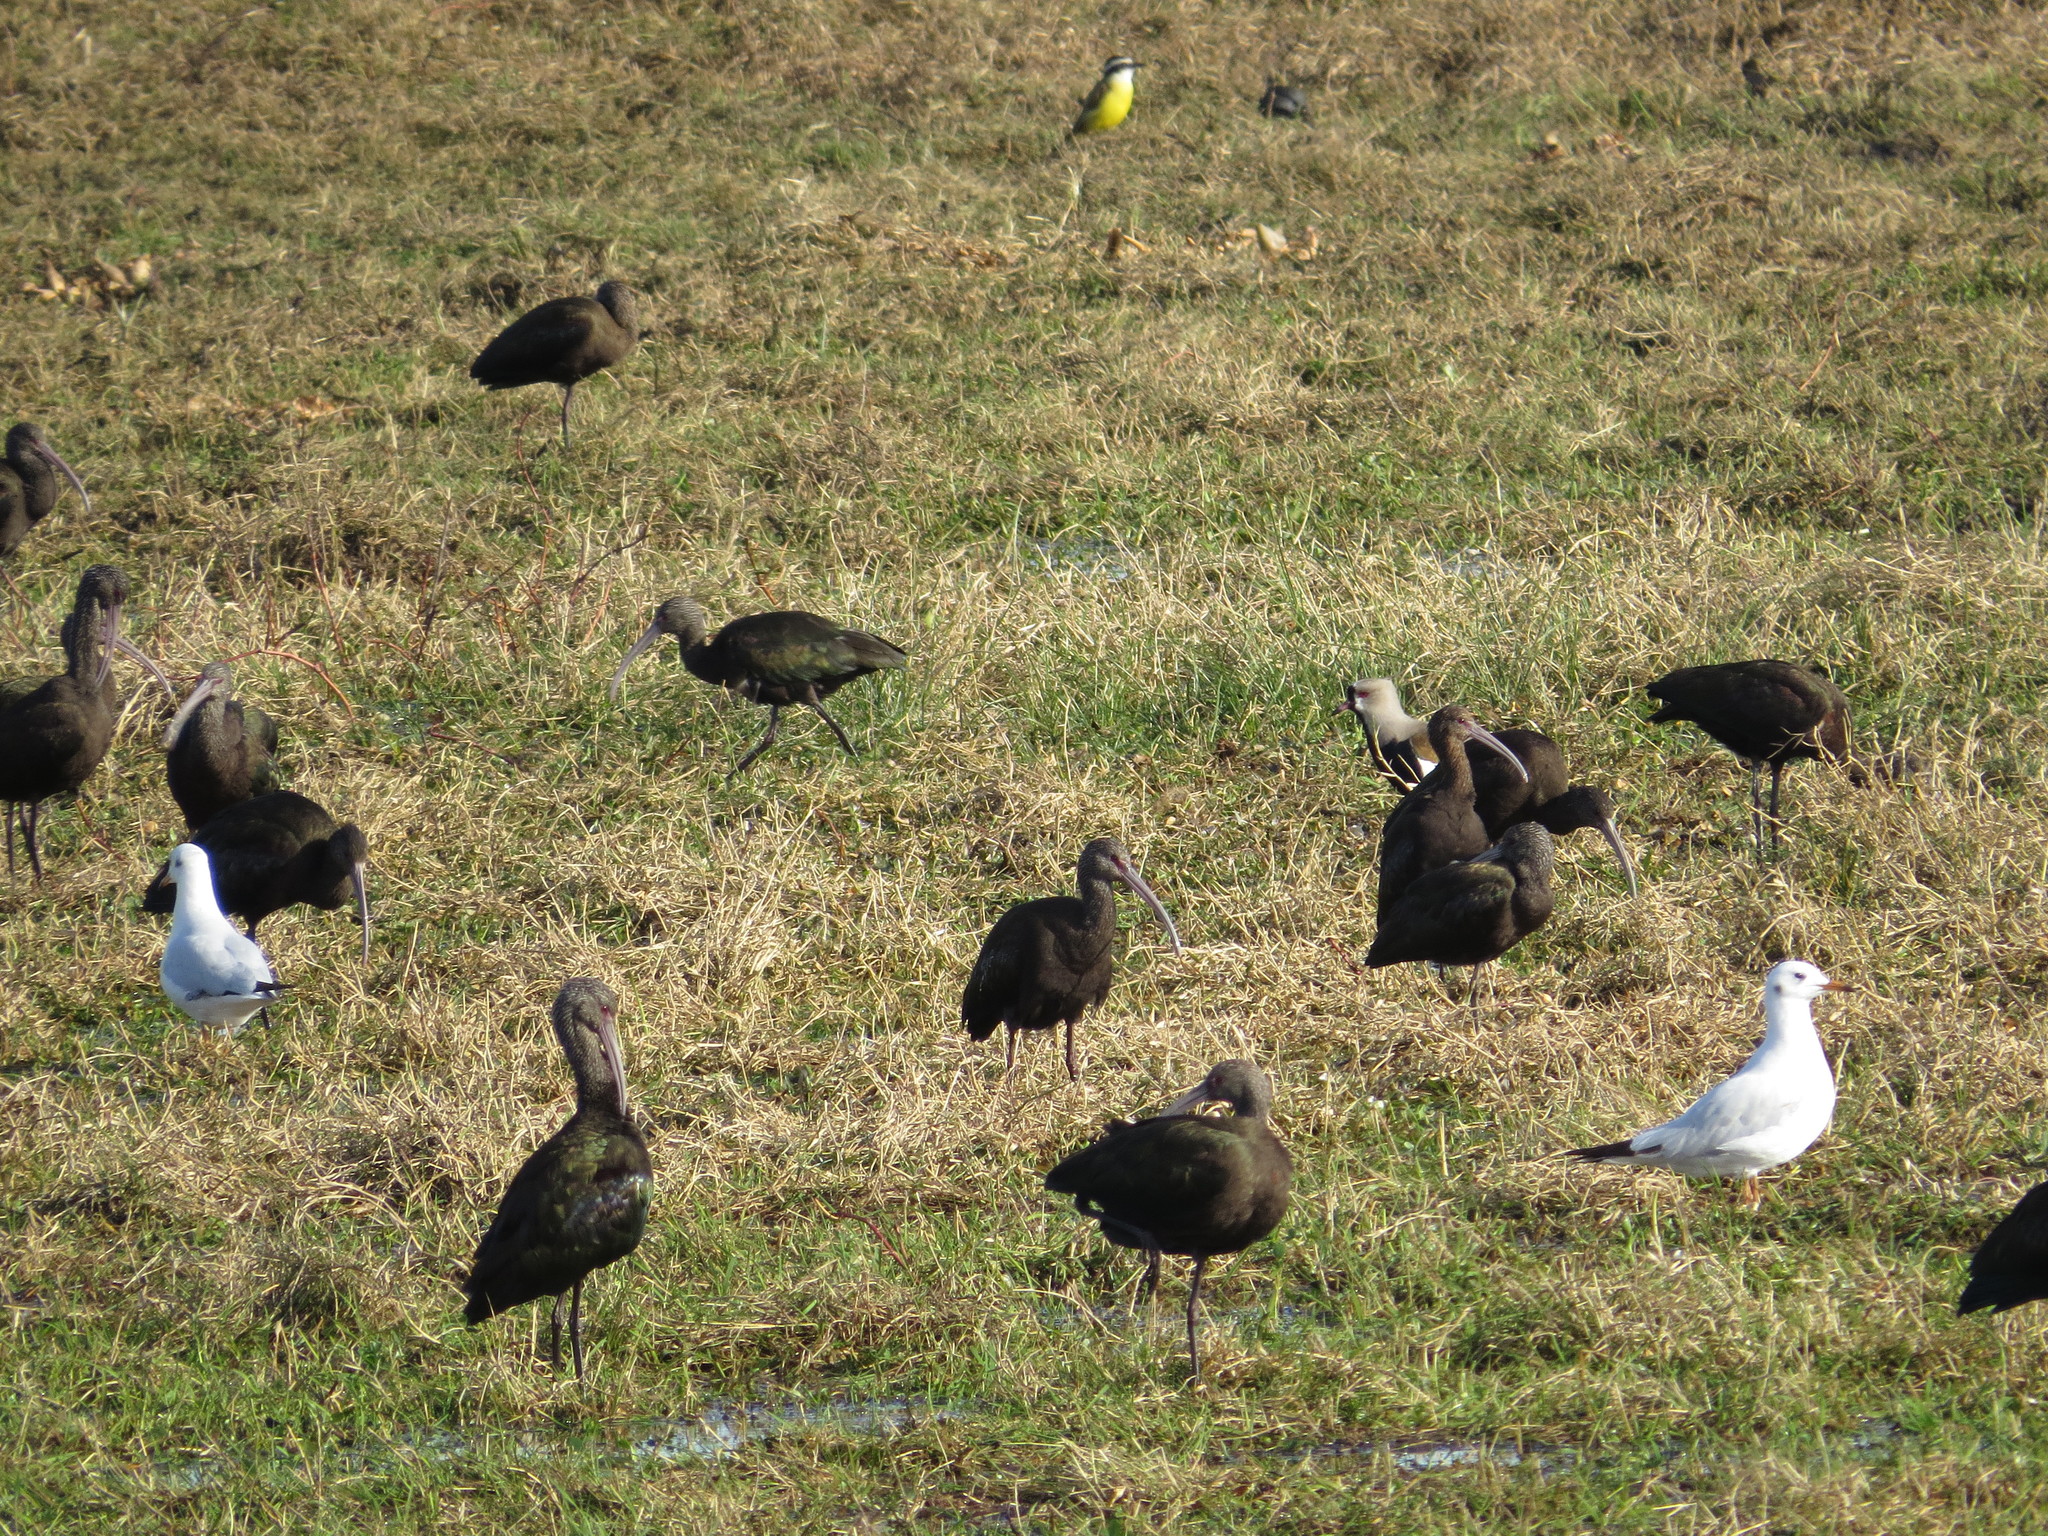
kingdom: Animalia
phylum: Chordata
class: Aves
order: Pelecaniformes
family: Threskiornithidae
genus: Plegadis
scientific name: Plegadis chihi
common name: White-faced ibis
